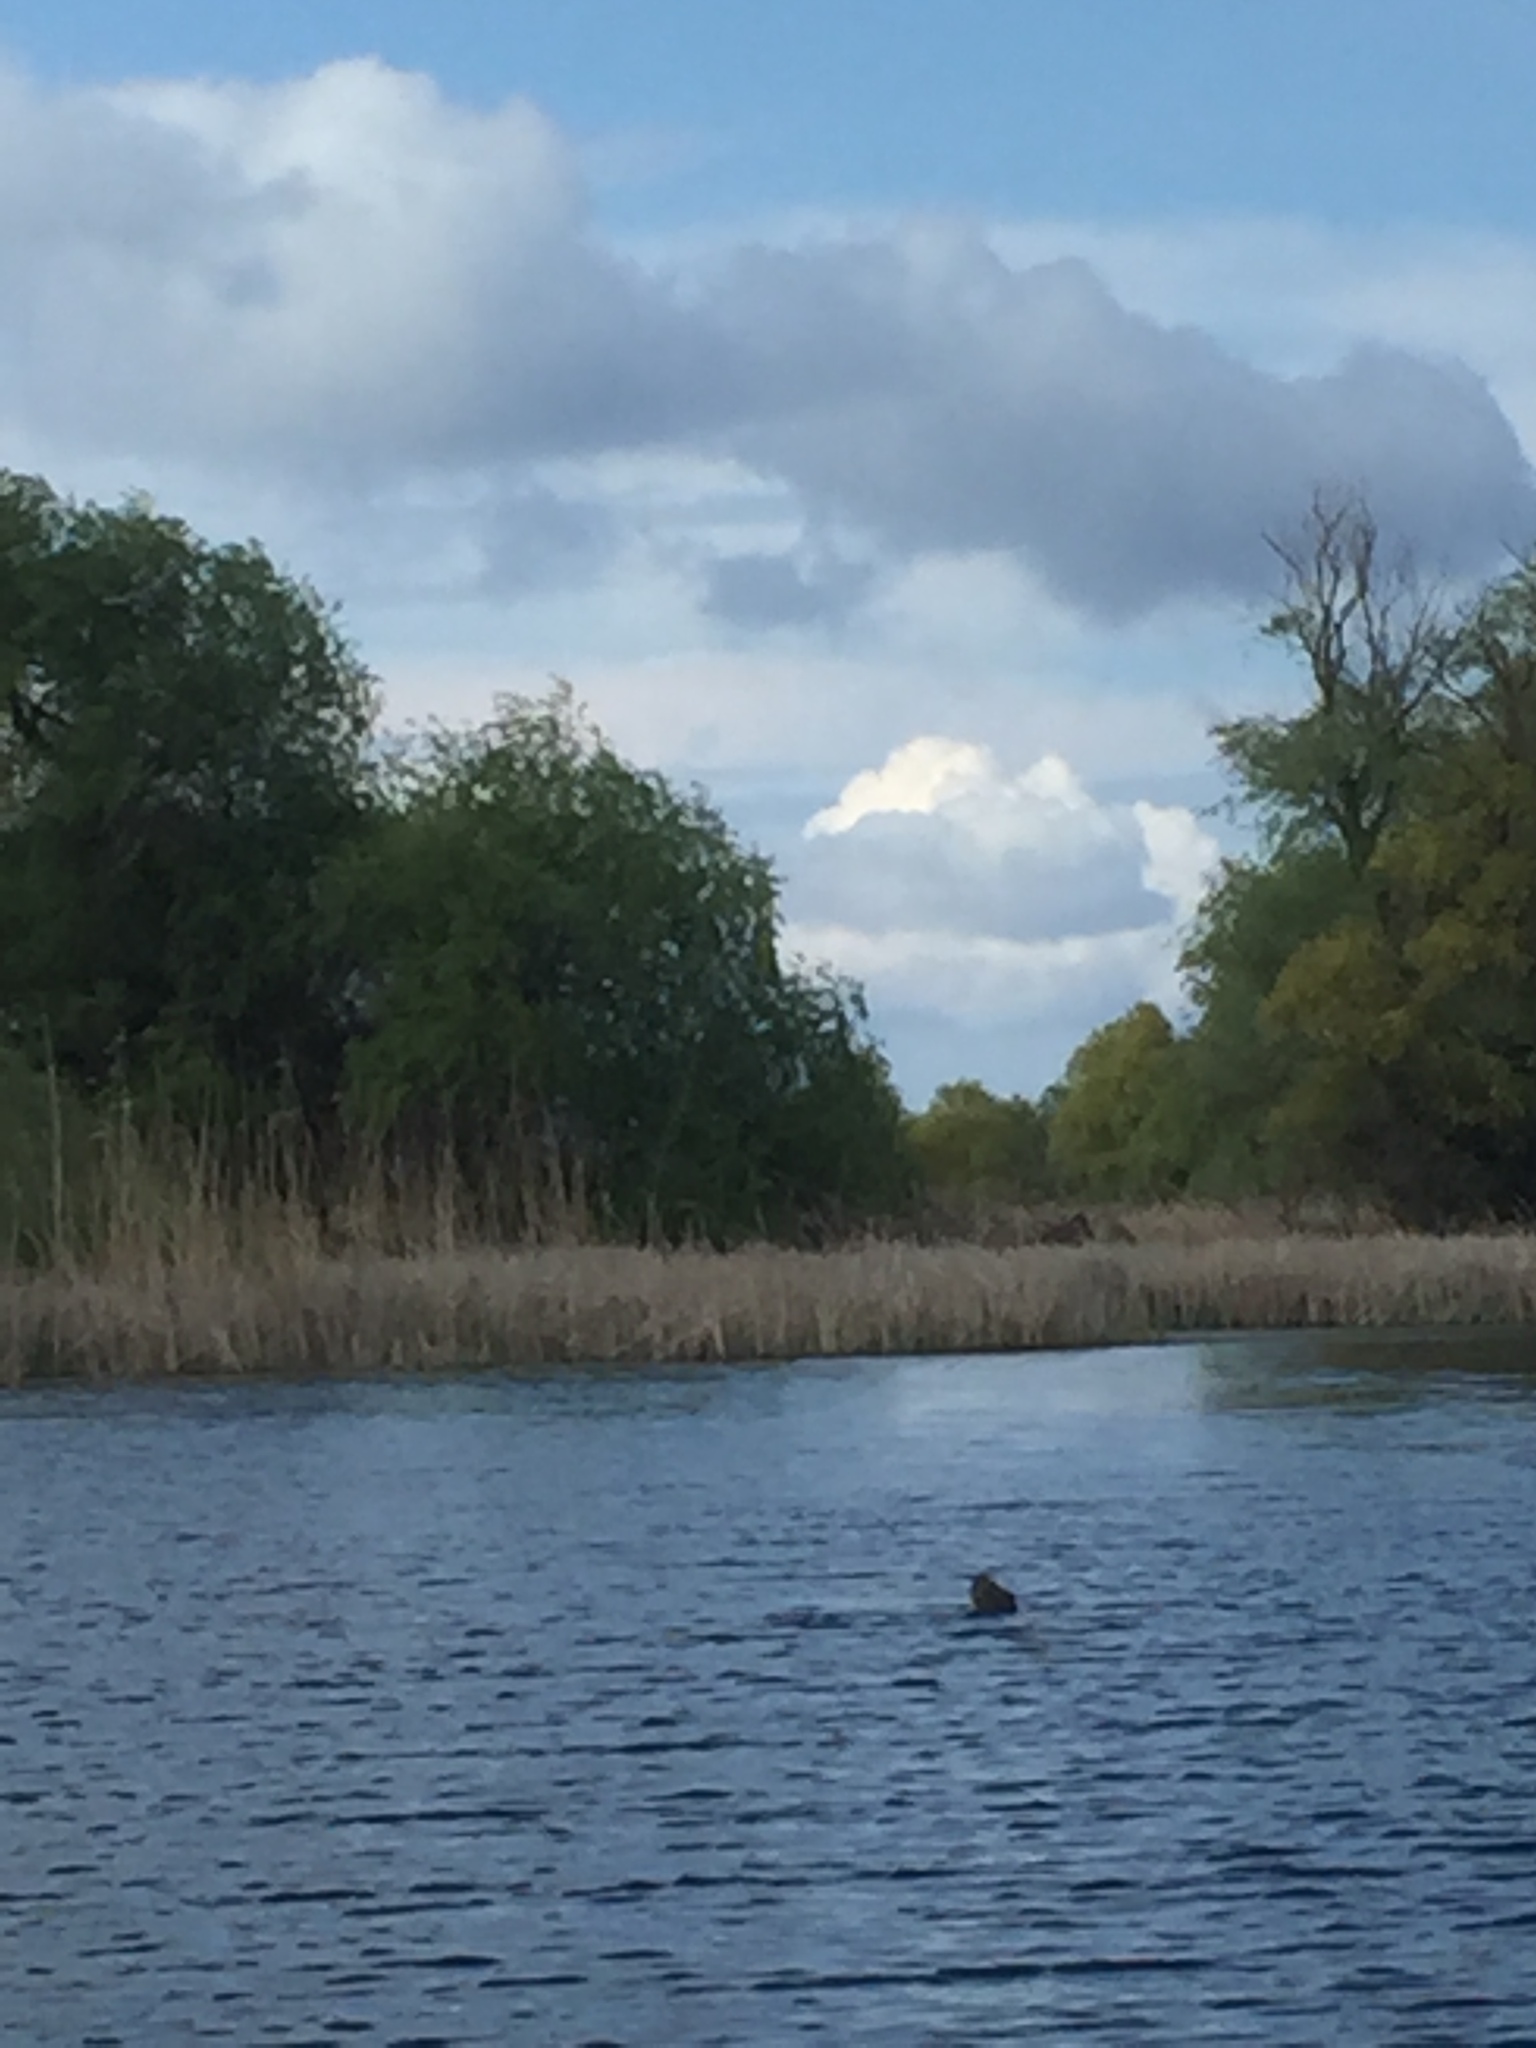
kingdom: Animalia
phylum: Chordata
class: Mammalia
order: Carnivora
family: Mustelidae
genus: Lutra
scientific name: Lutra lutra
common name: European otter
